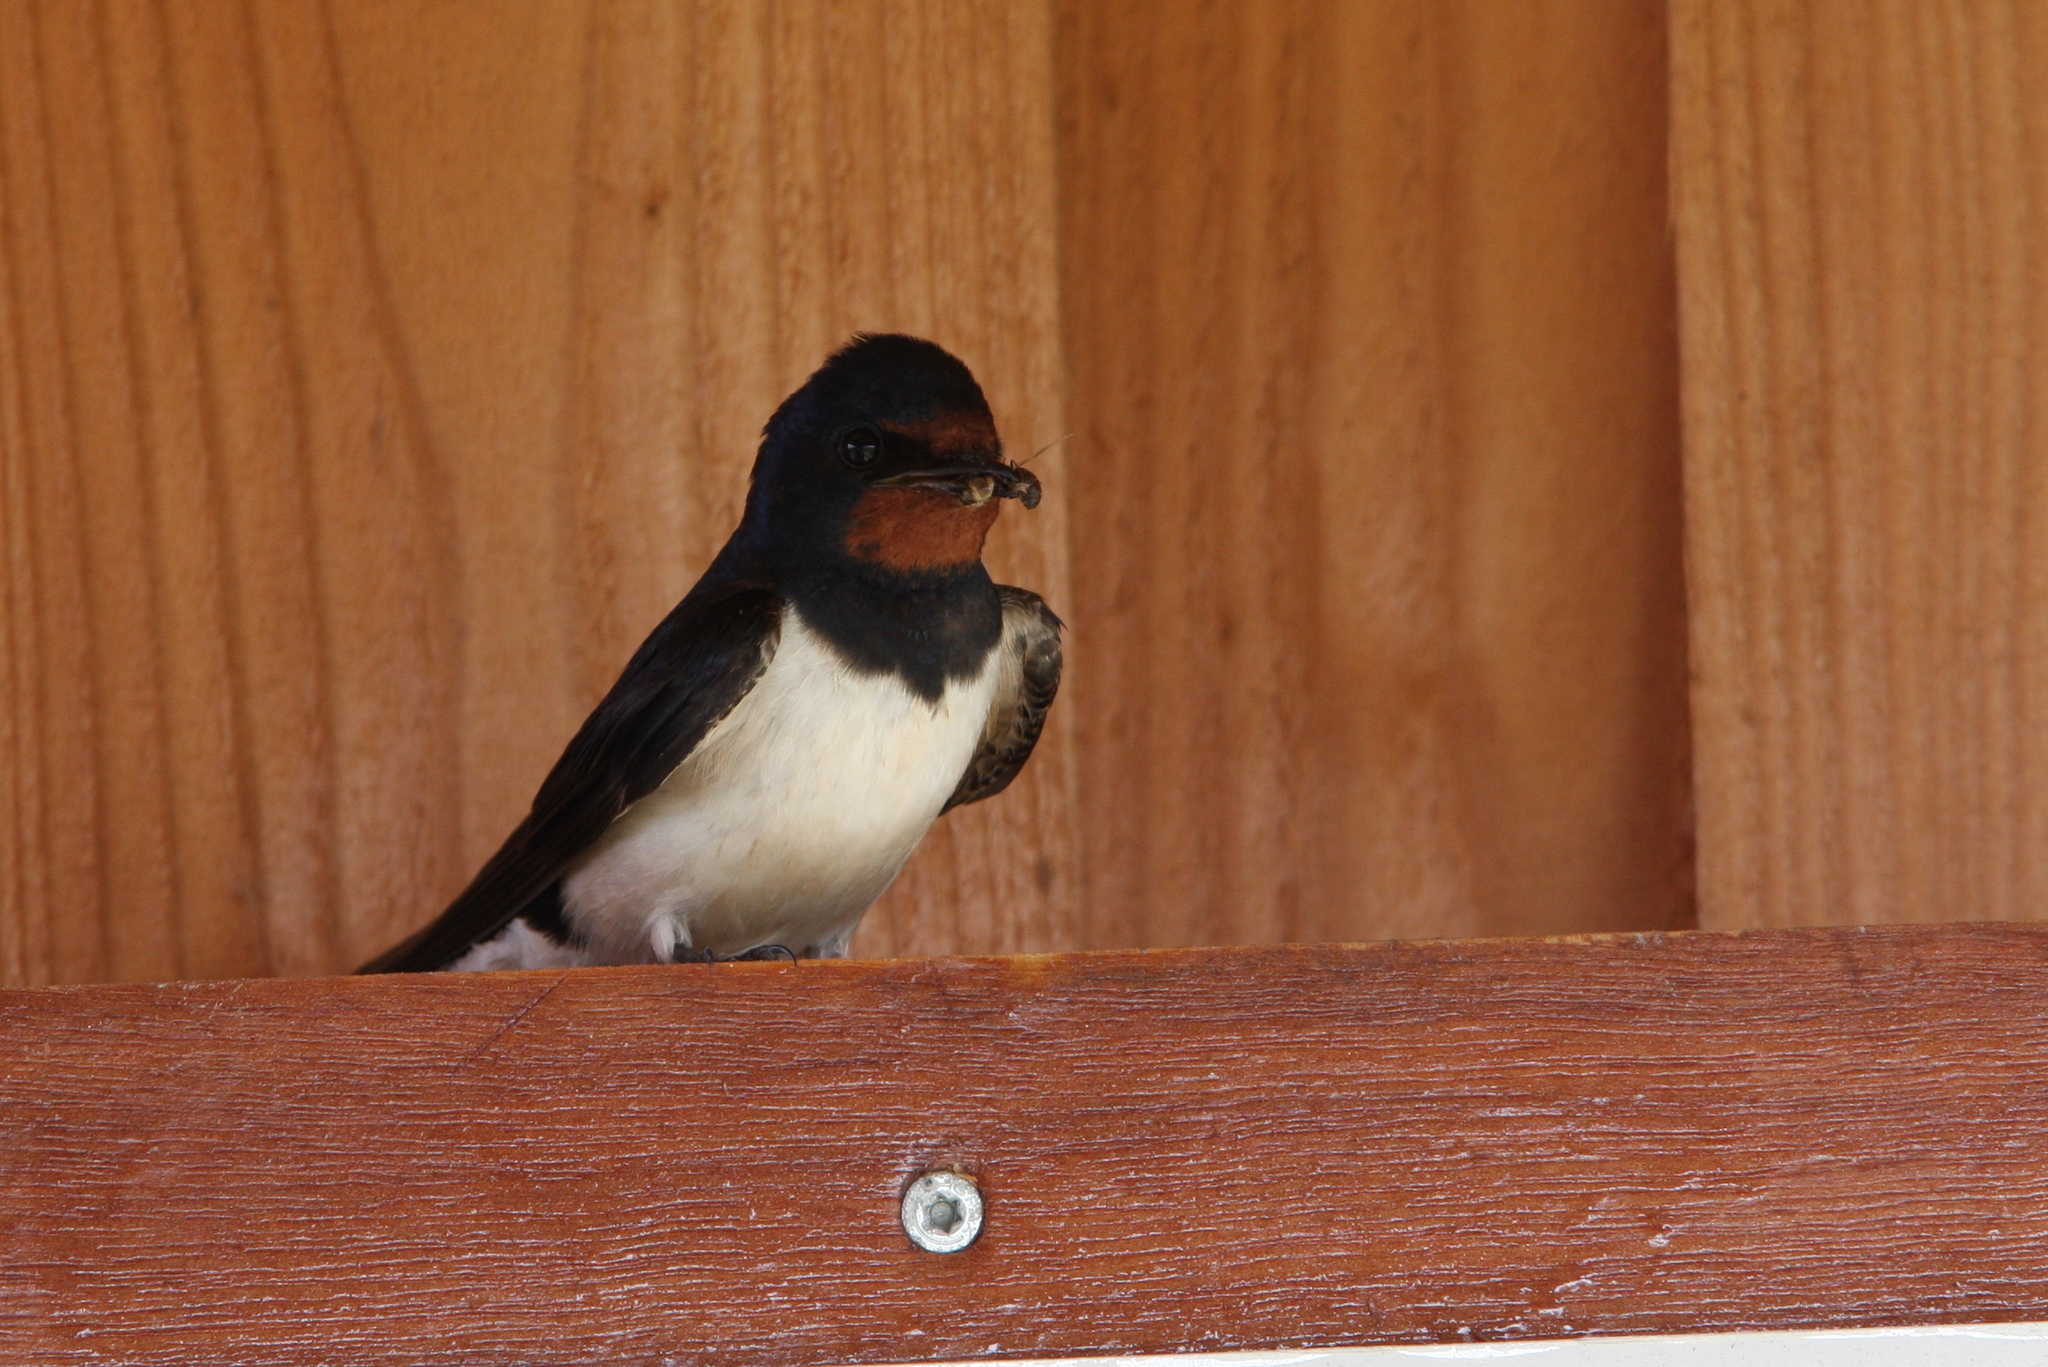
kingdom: Animalia
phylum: Chordata
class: Aves
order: Passeriformes
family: Hirundinidae
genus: Hirundo
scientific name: Hirundo rustica
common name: Barn swallow
